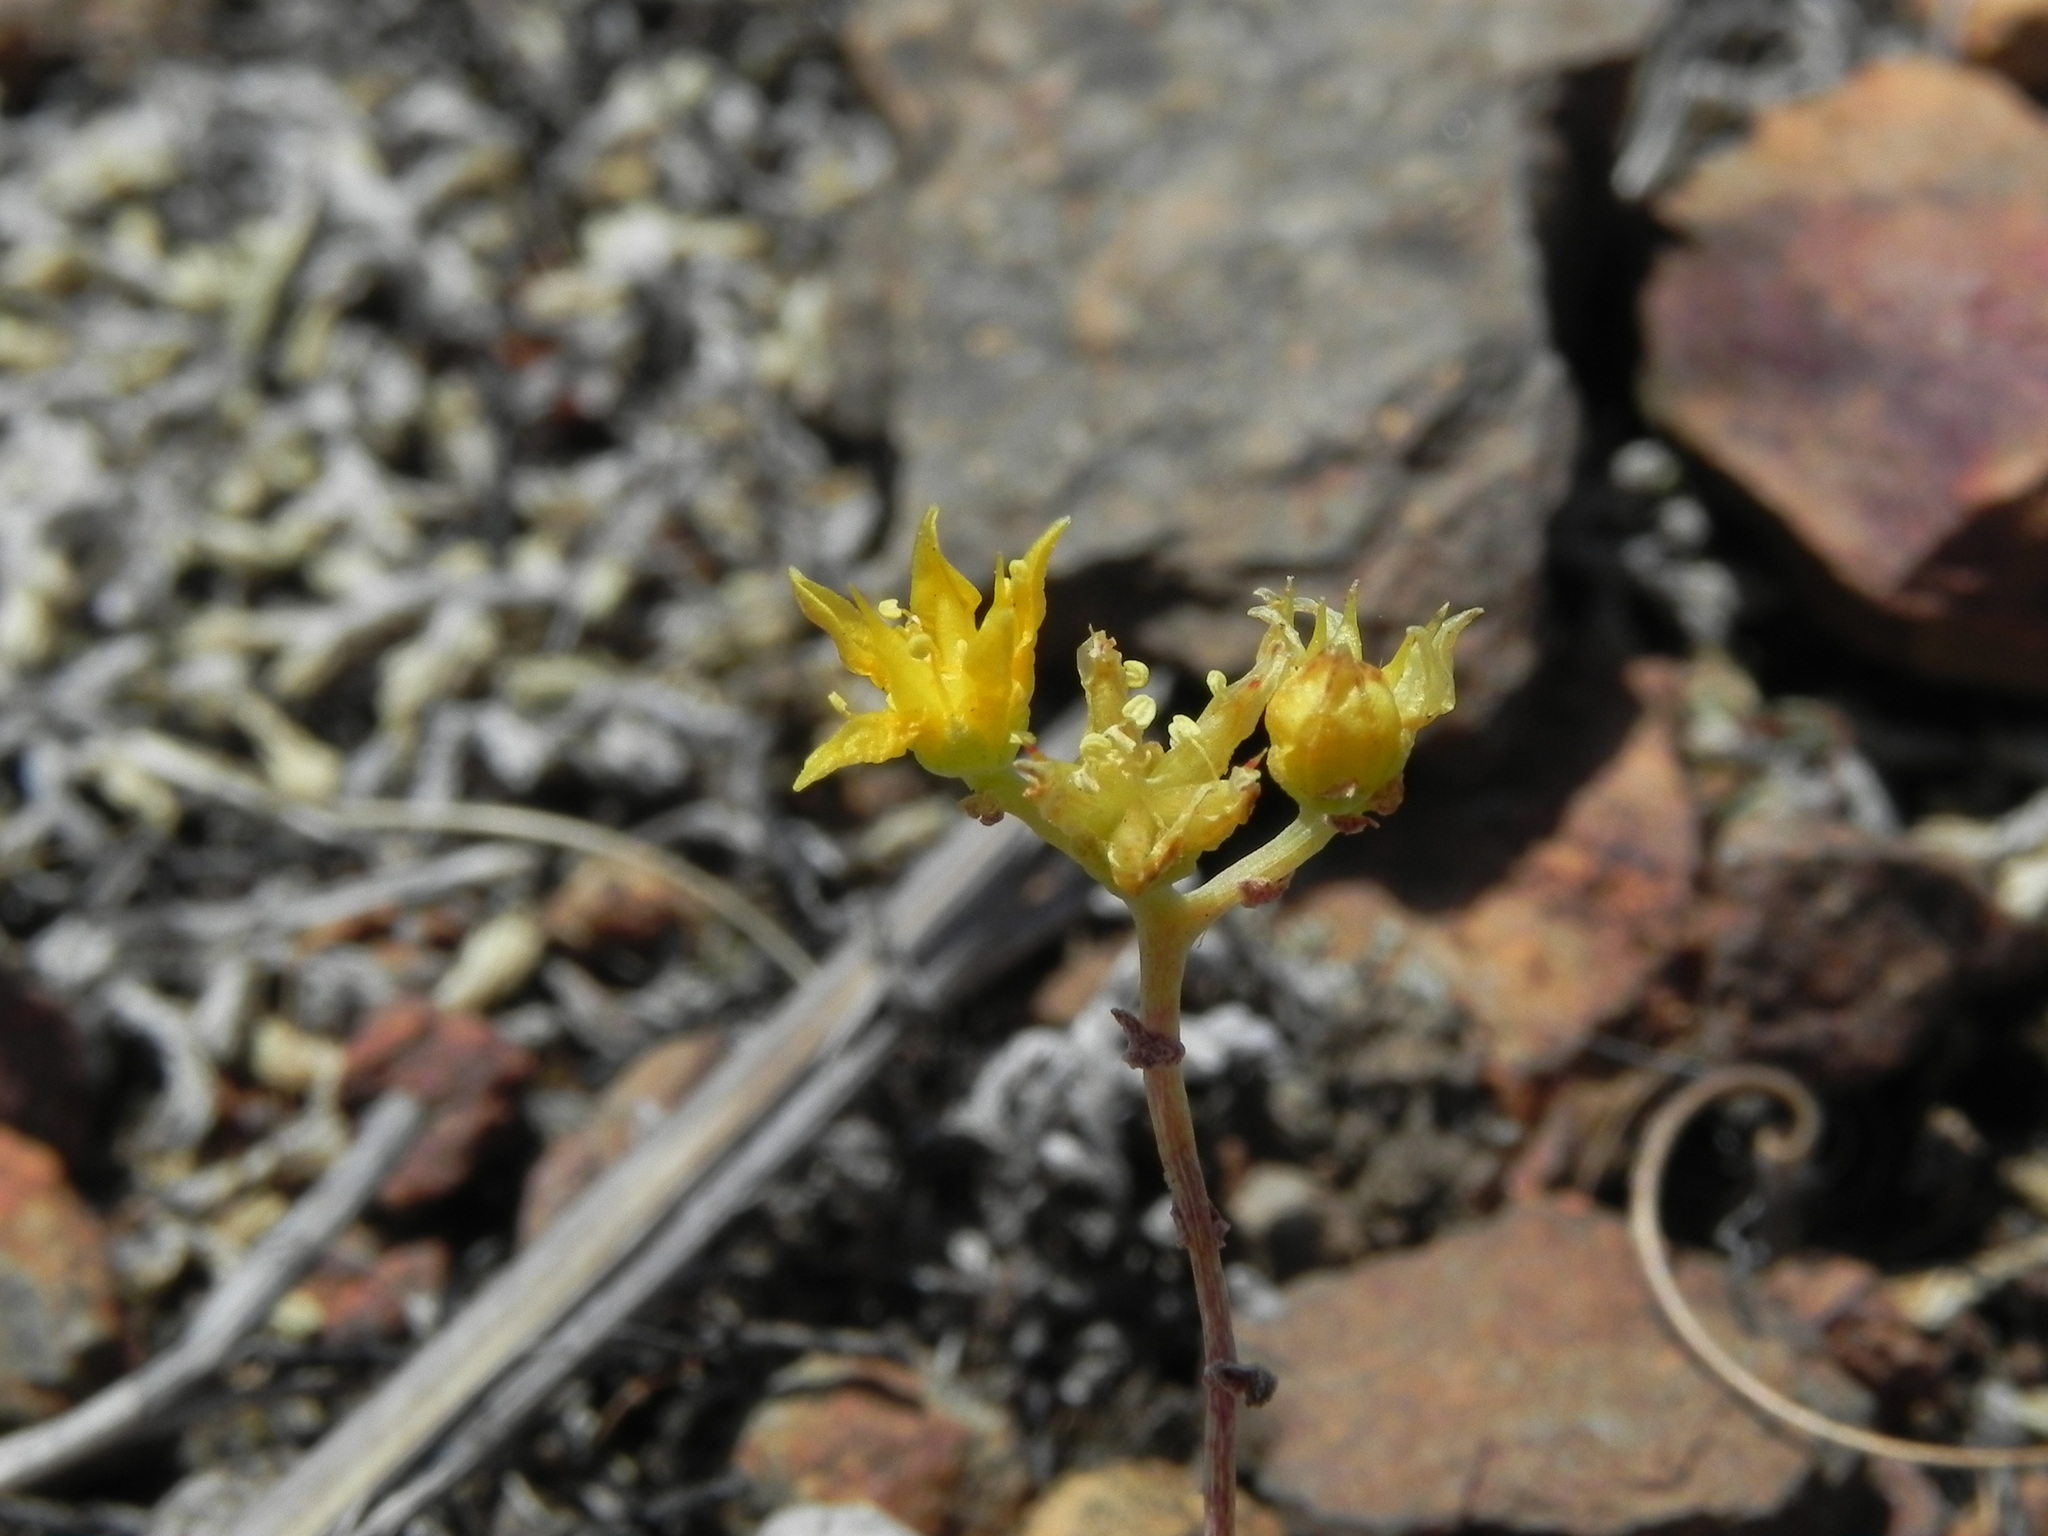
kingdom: Plantae
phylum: Tracheophyta
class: Magnoliopsida
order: Saxifragales
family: Crassulaceae
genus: Dudleya
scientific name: Dudleya variegata
